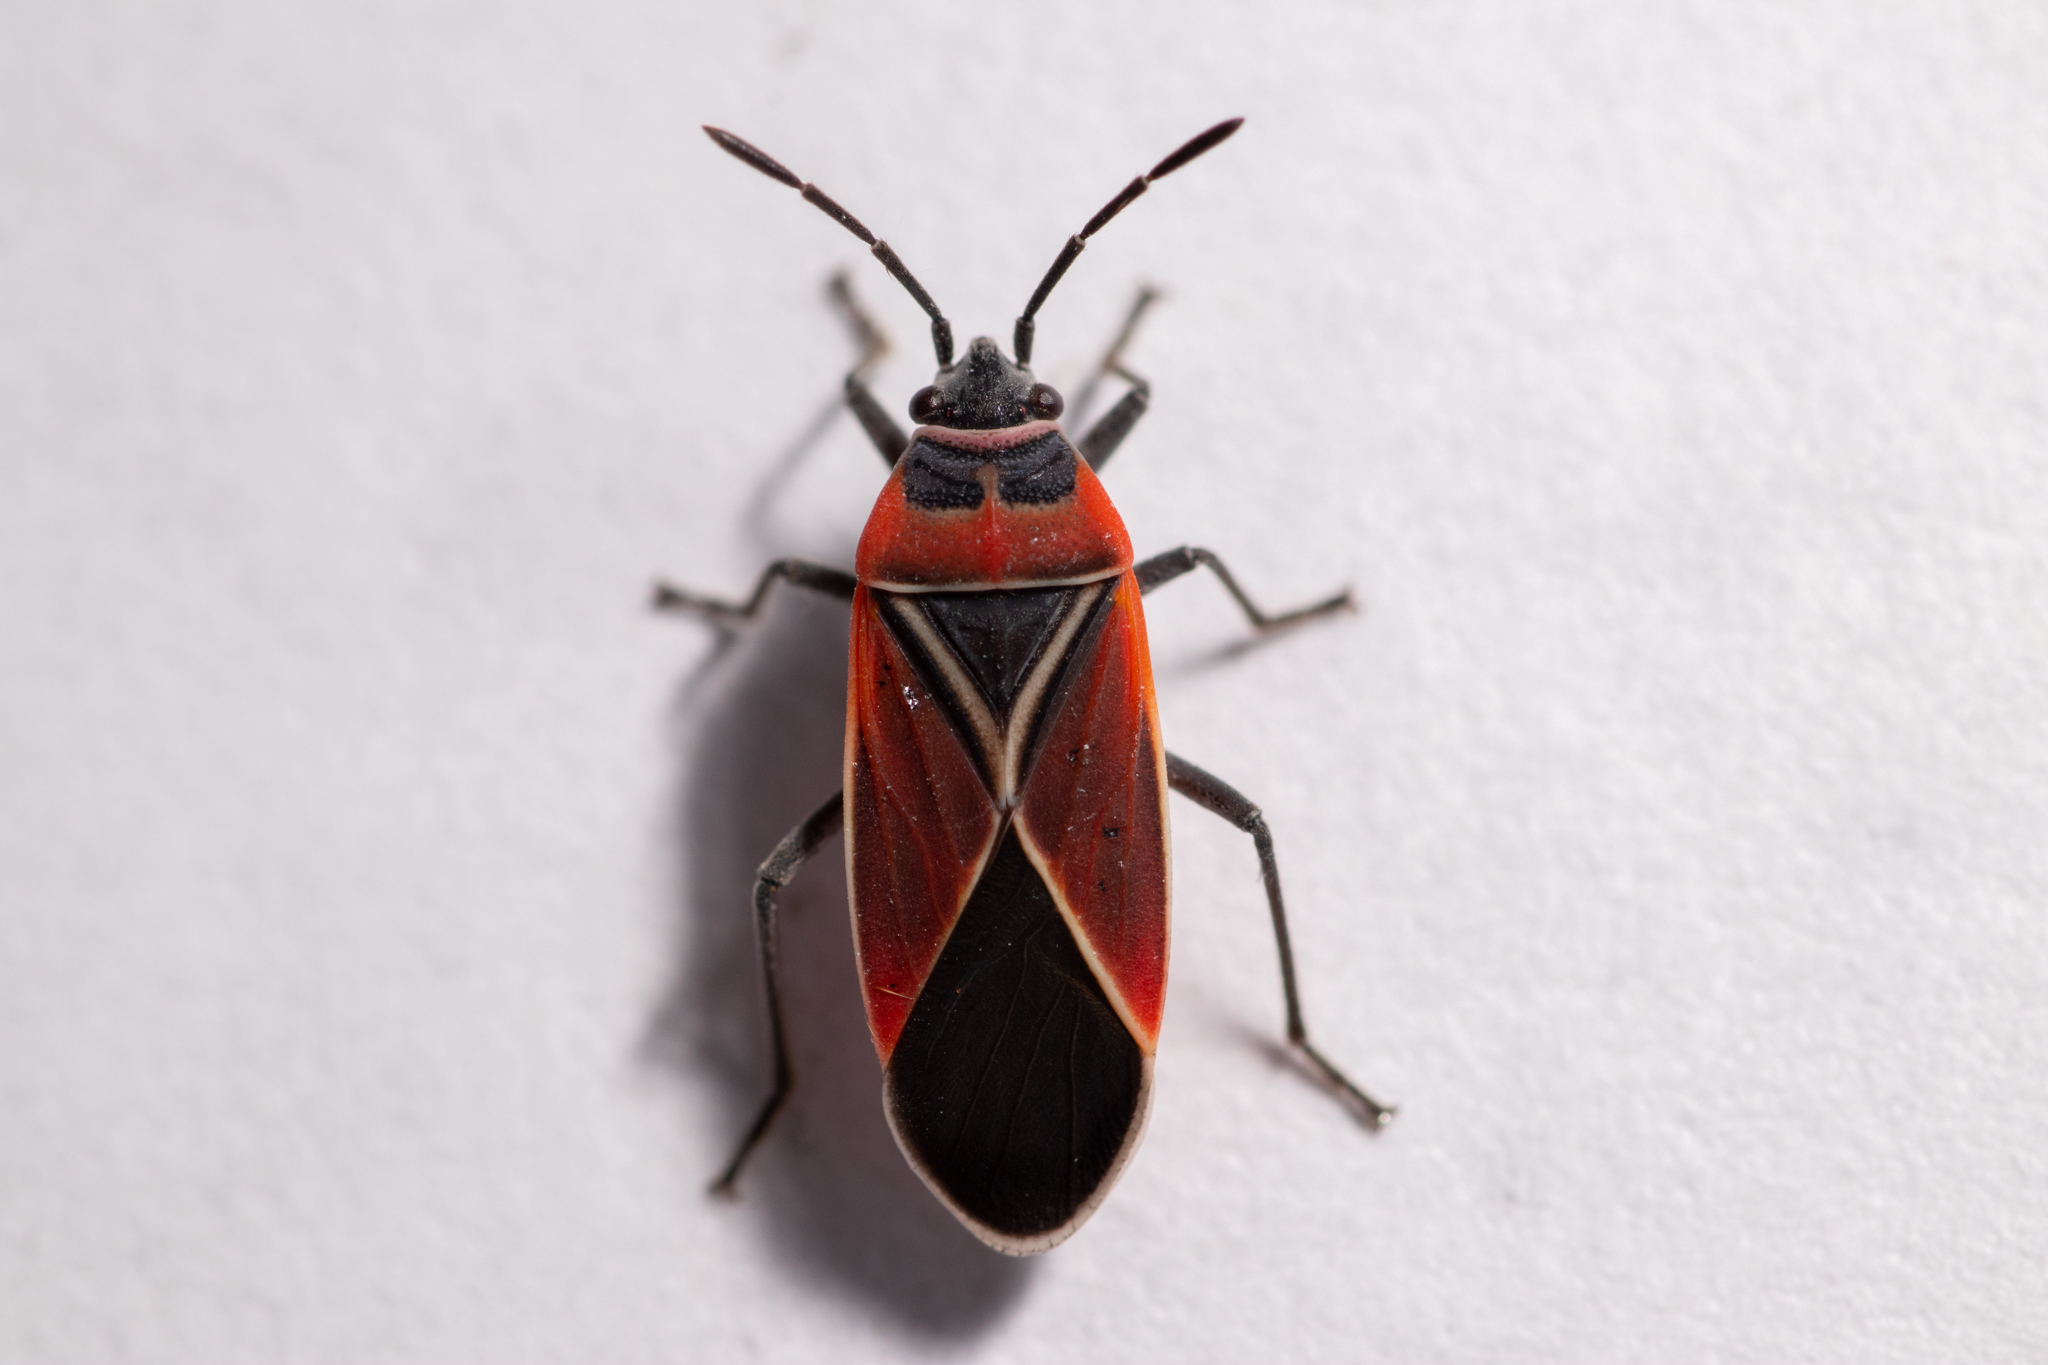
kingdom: Animalia
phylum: Arthropoda
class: Insecta
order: Hemiptera
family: Lygaeidae
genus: Neacoryphus
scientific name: Neacoryphus bicrucis
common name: Lygaeid bug
